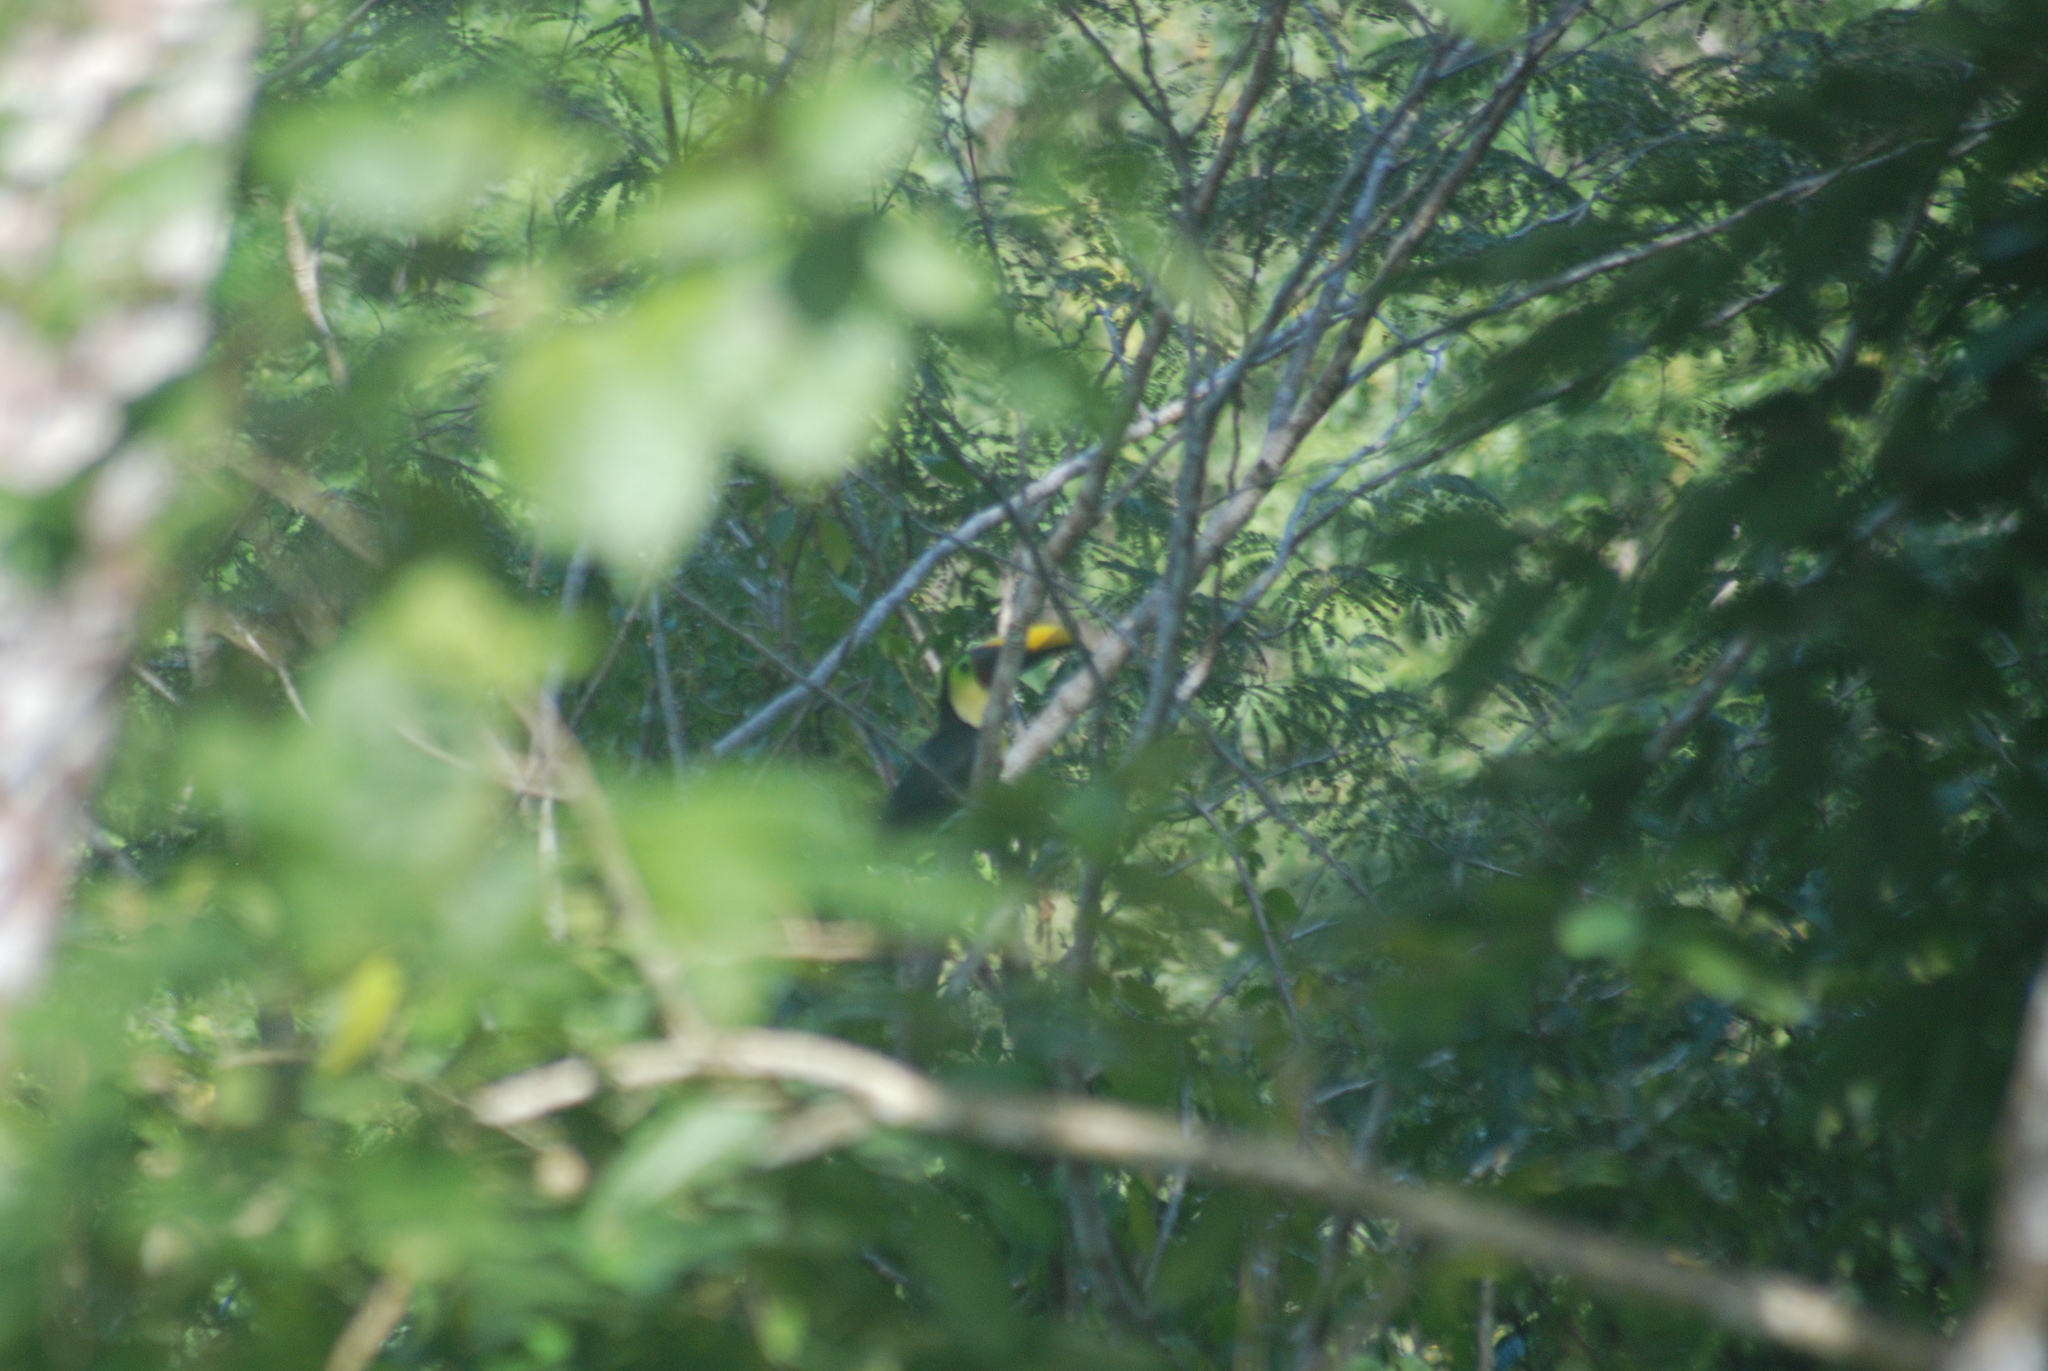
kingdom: Animalia
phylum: Chordata
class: Aves
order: Piciformes
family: Ramphastidae
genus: Ramphastos
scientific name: Ramphastos ambiguus
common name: Yellow-throated toucan
